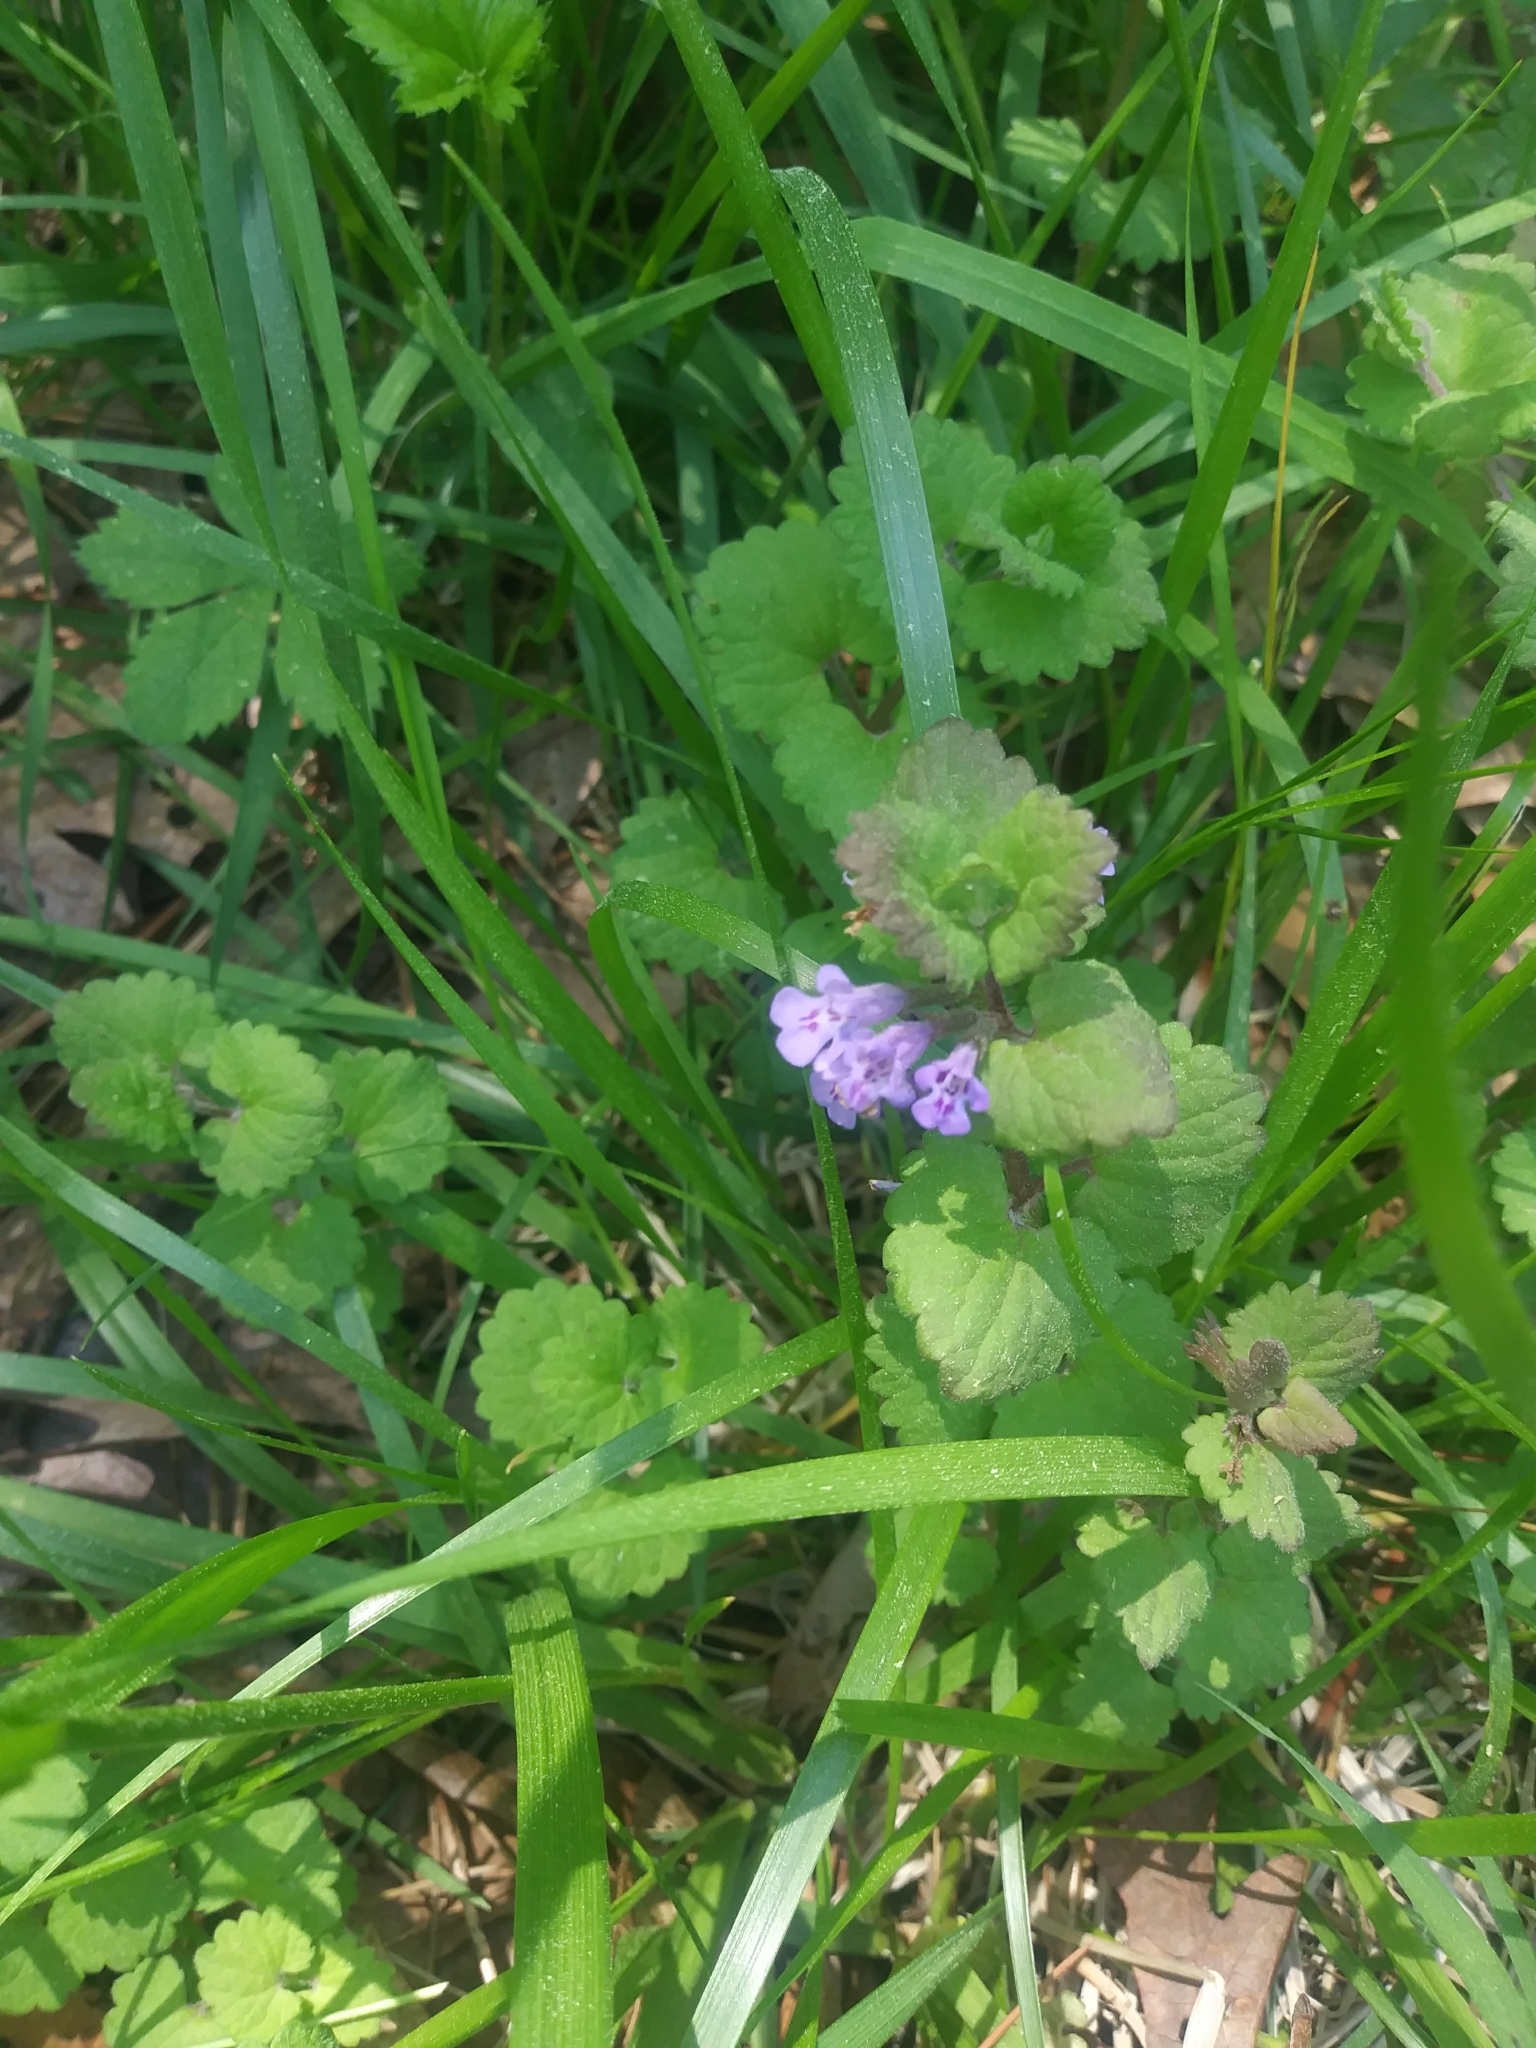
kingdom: Plantae
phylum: Tracheophyta
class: Magnoliopsida
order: Lamiales
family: Lamiaceae
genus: Glechoma
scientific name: Glechoma hederacea
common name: Ground ivy
